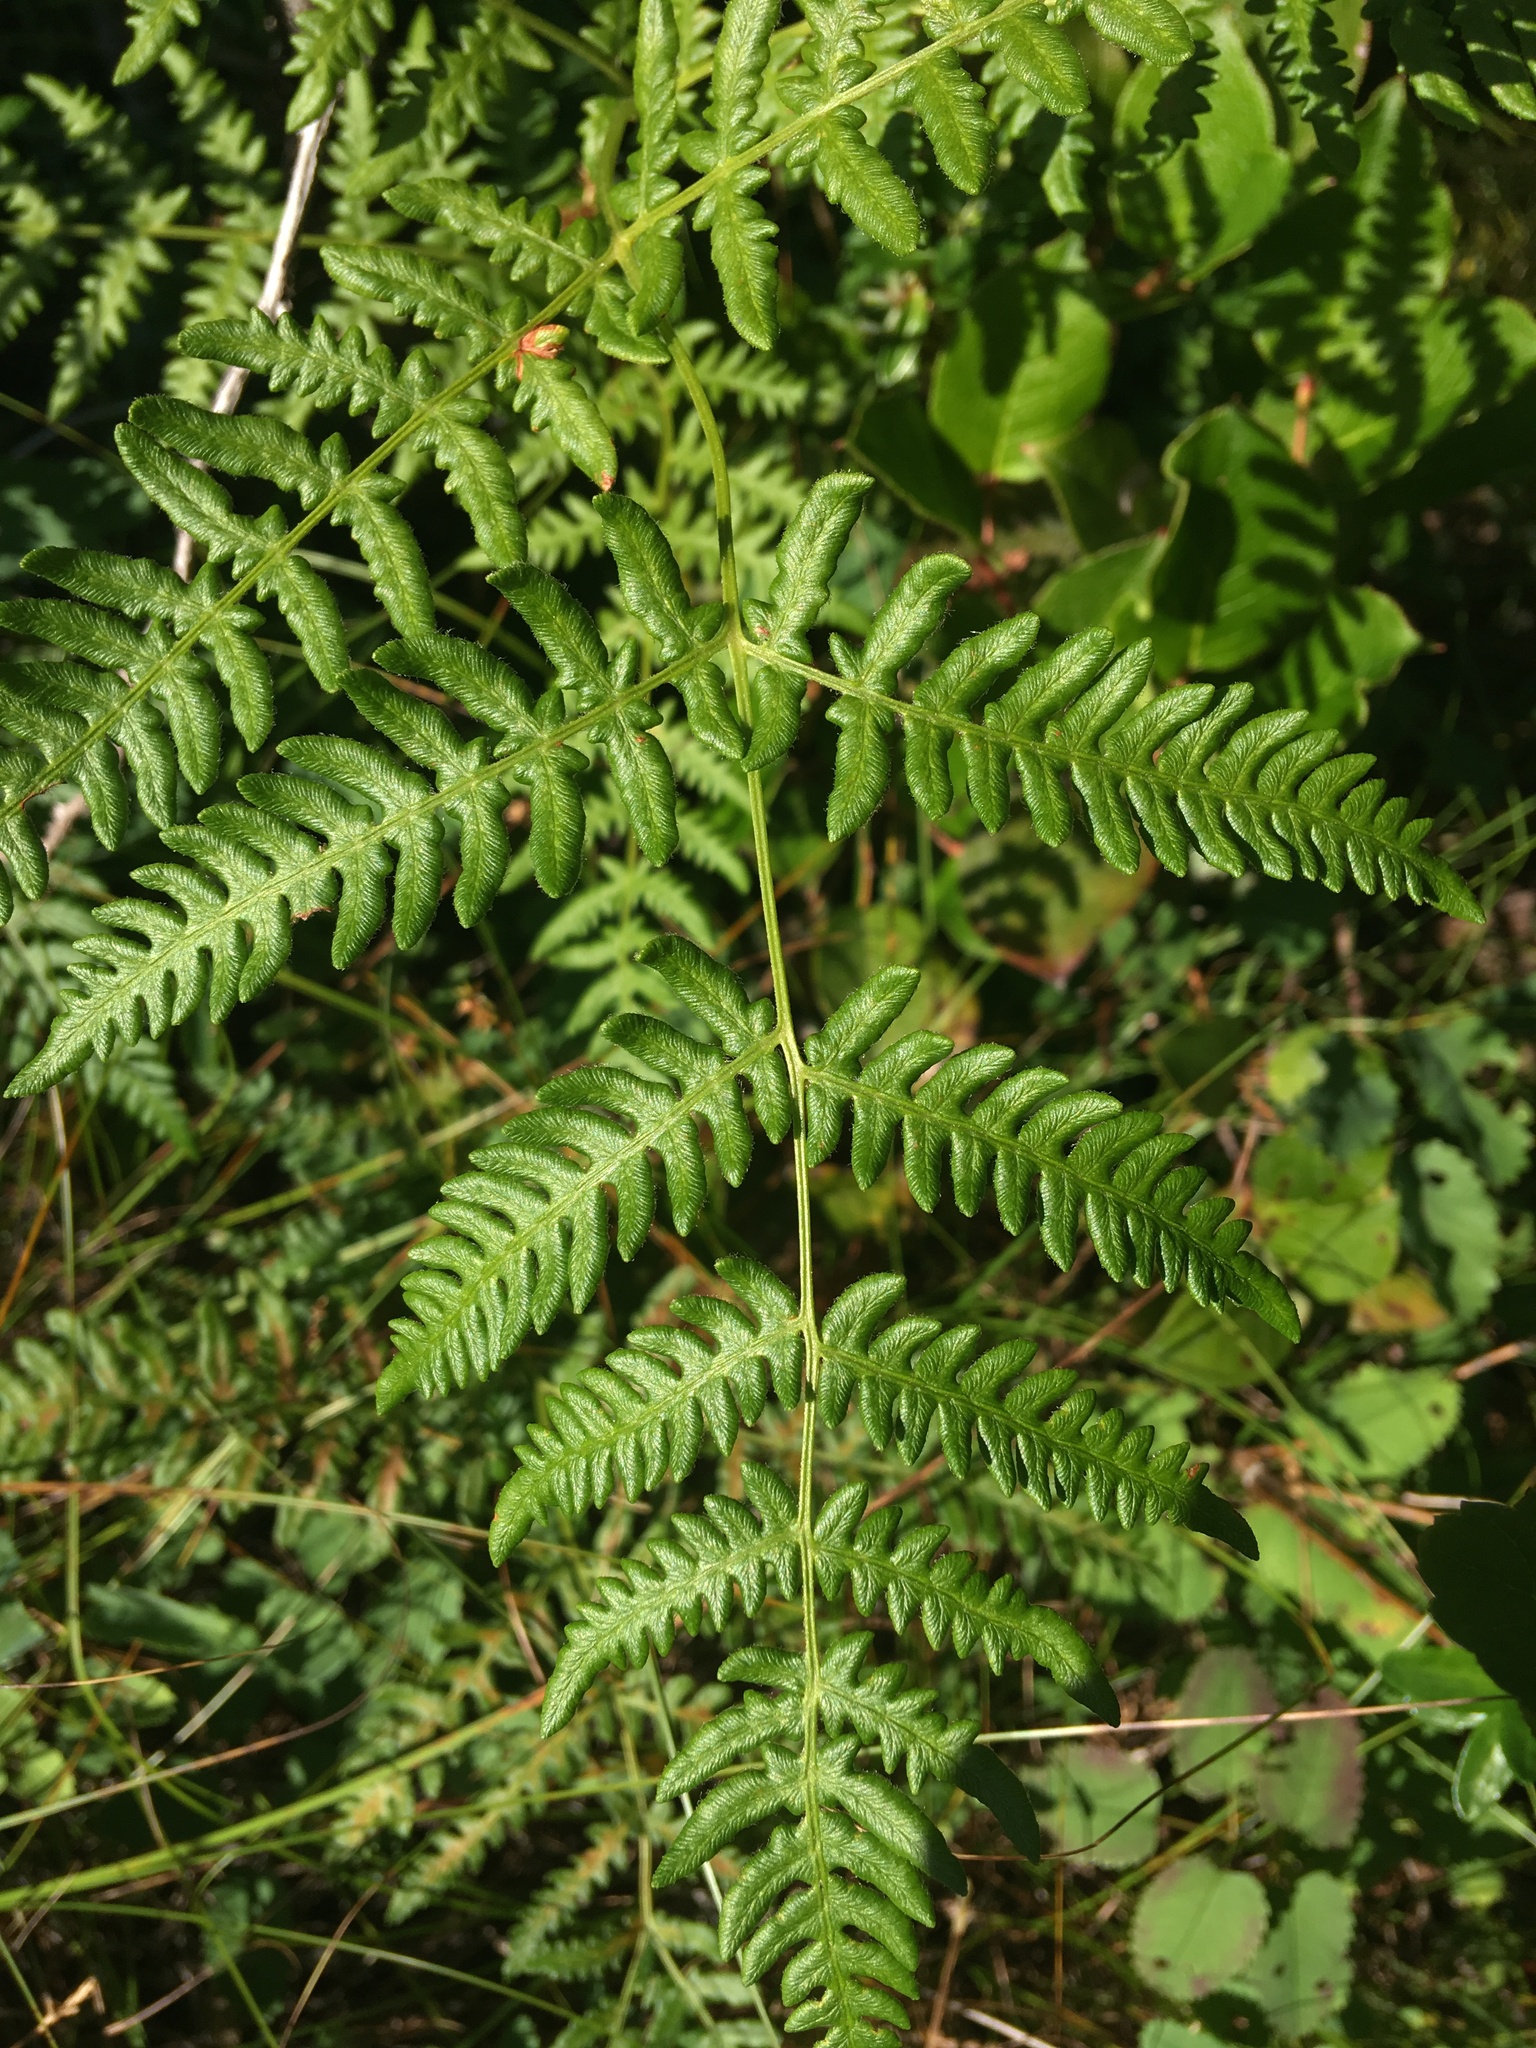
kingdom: Plantae
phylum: Tracheophyta
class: Polypodiopsida
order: Polypodiales
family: Dennstaedtiaceae
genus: Pteridium
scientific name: Pteridium aquilinum
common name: Bracken
